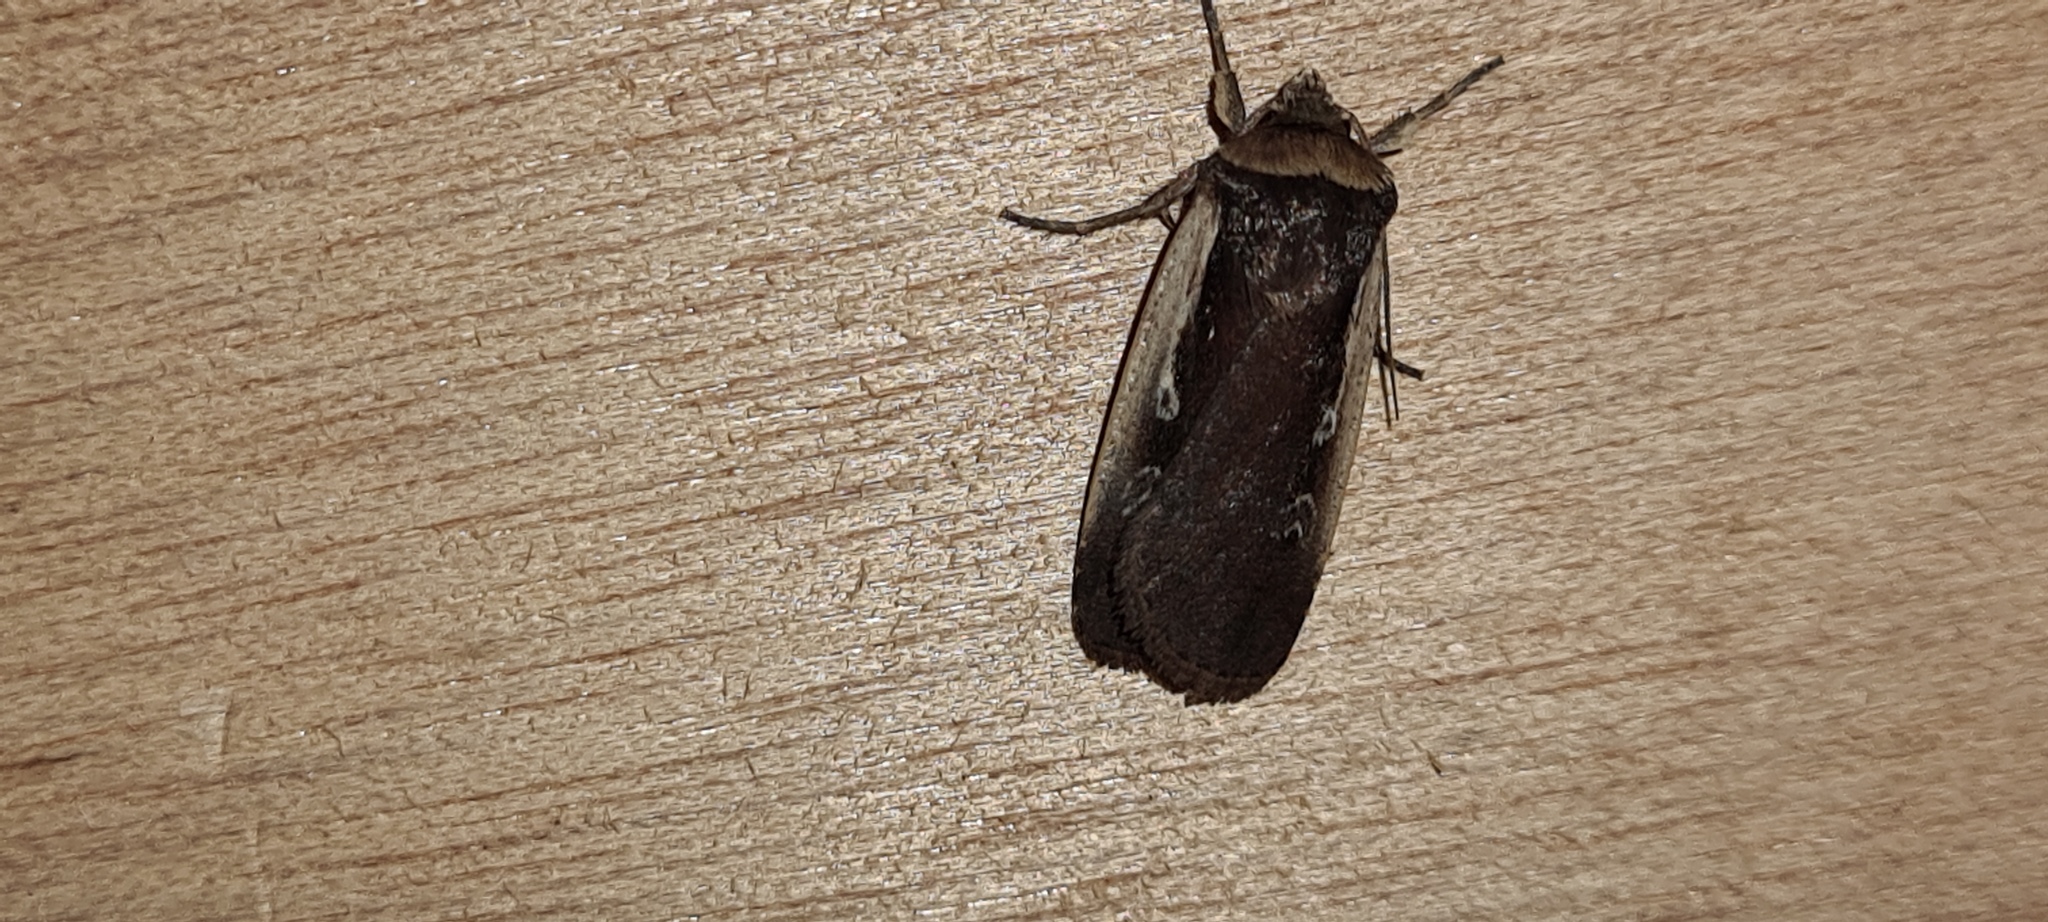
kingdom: Animalia
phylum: Arthropoda
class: Insecta
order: Lepidoptera
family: Noctuidae
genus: Ochropleura
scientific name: Ochropleura plecta
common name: Flame shoulder
